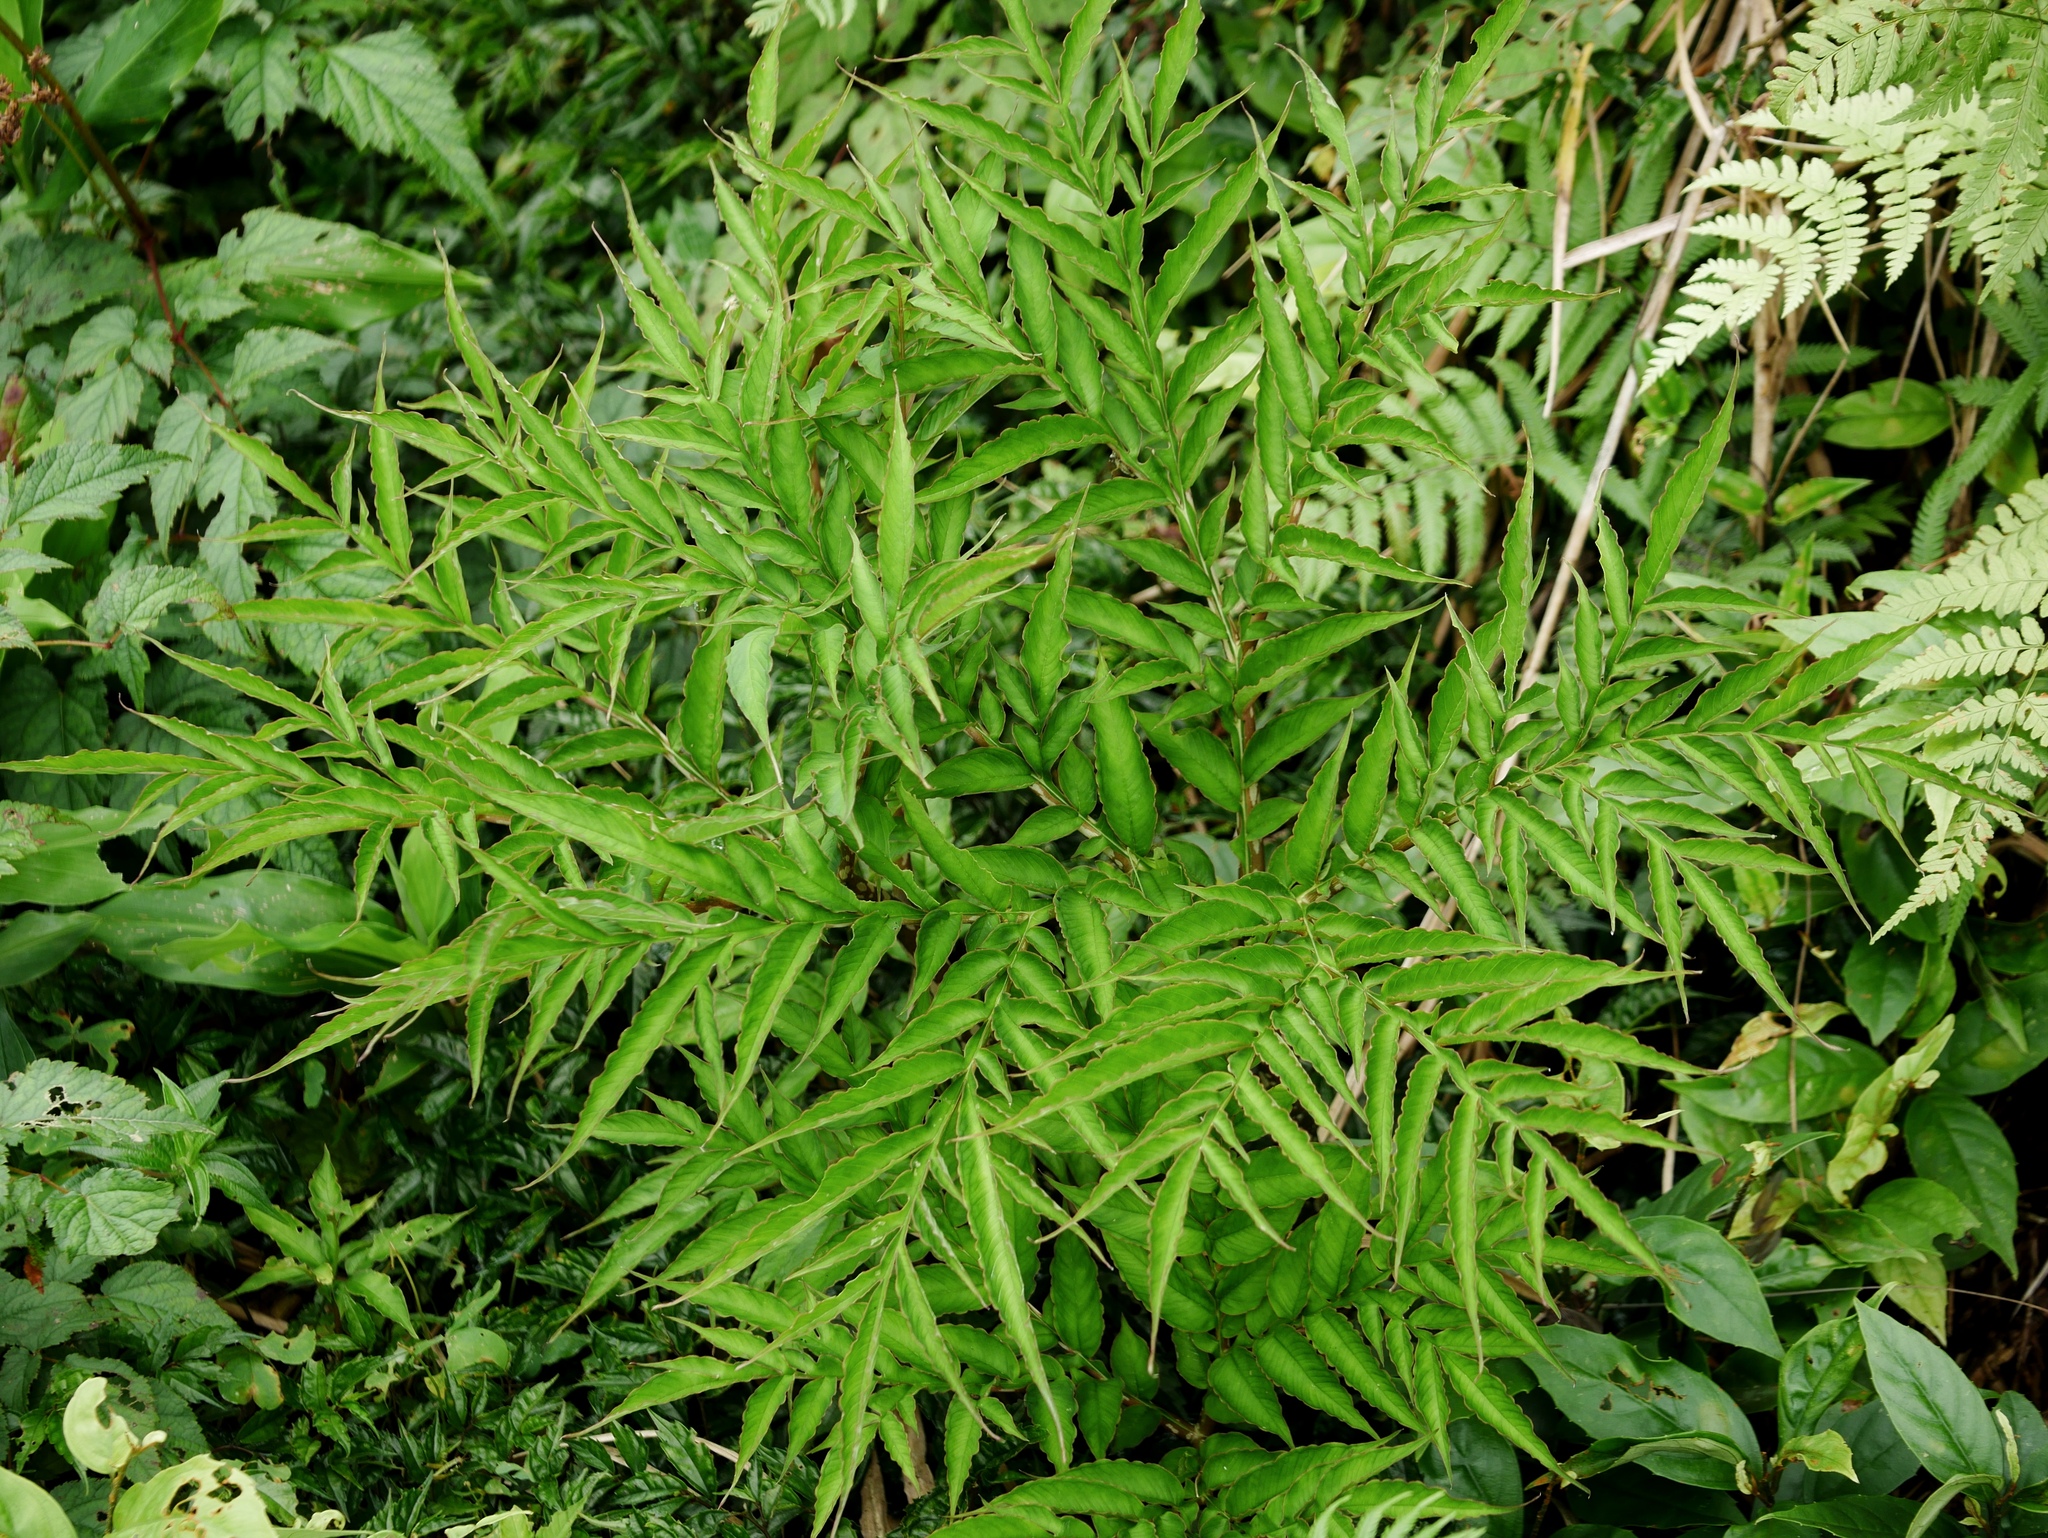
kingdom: Plantae
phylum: Tracheophyta
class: Liliopsida
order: Alismatales
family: Araceae
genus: Amorphophallus
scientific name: Amorphophallus kiusianus
